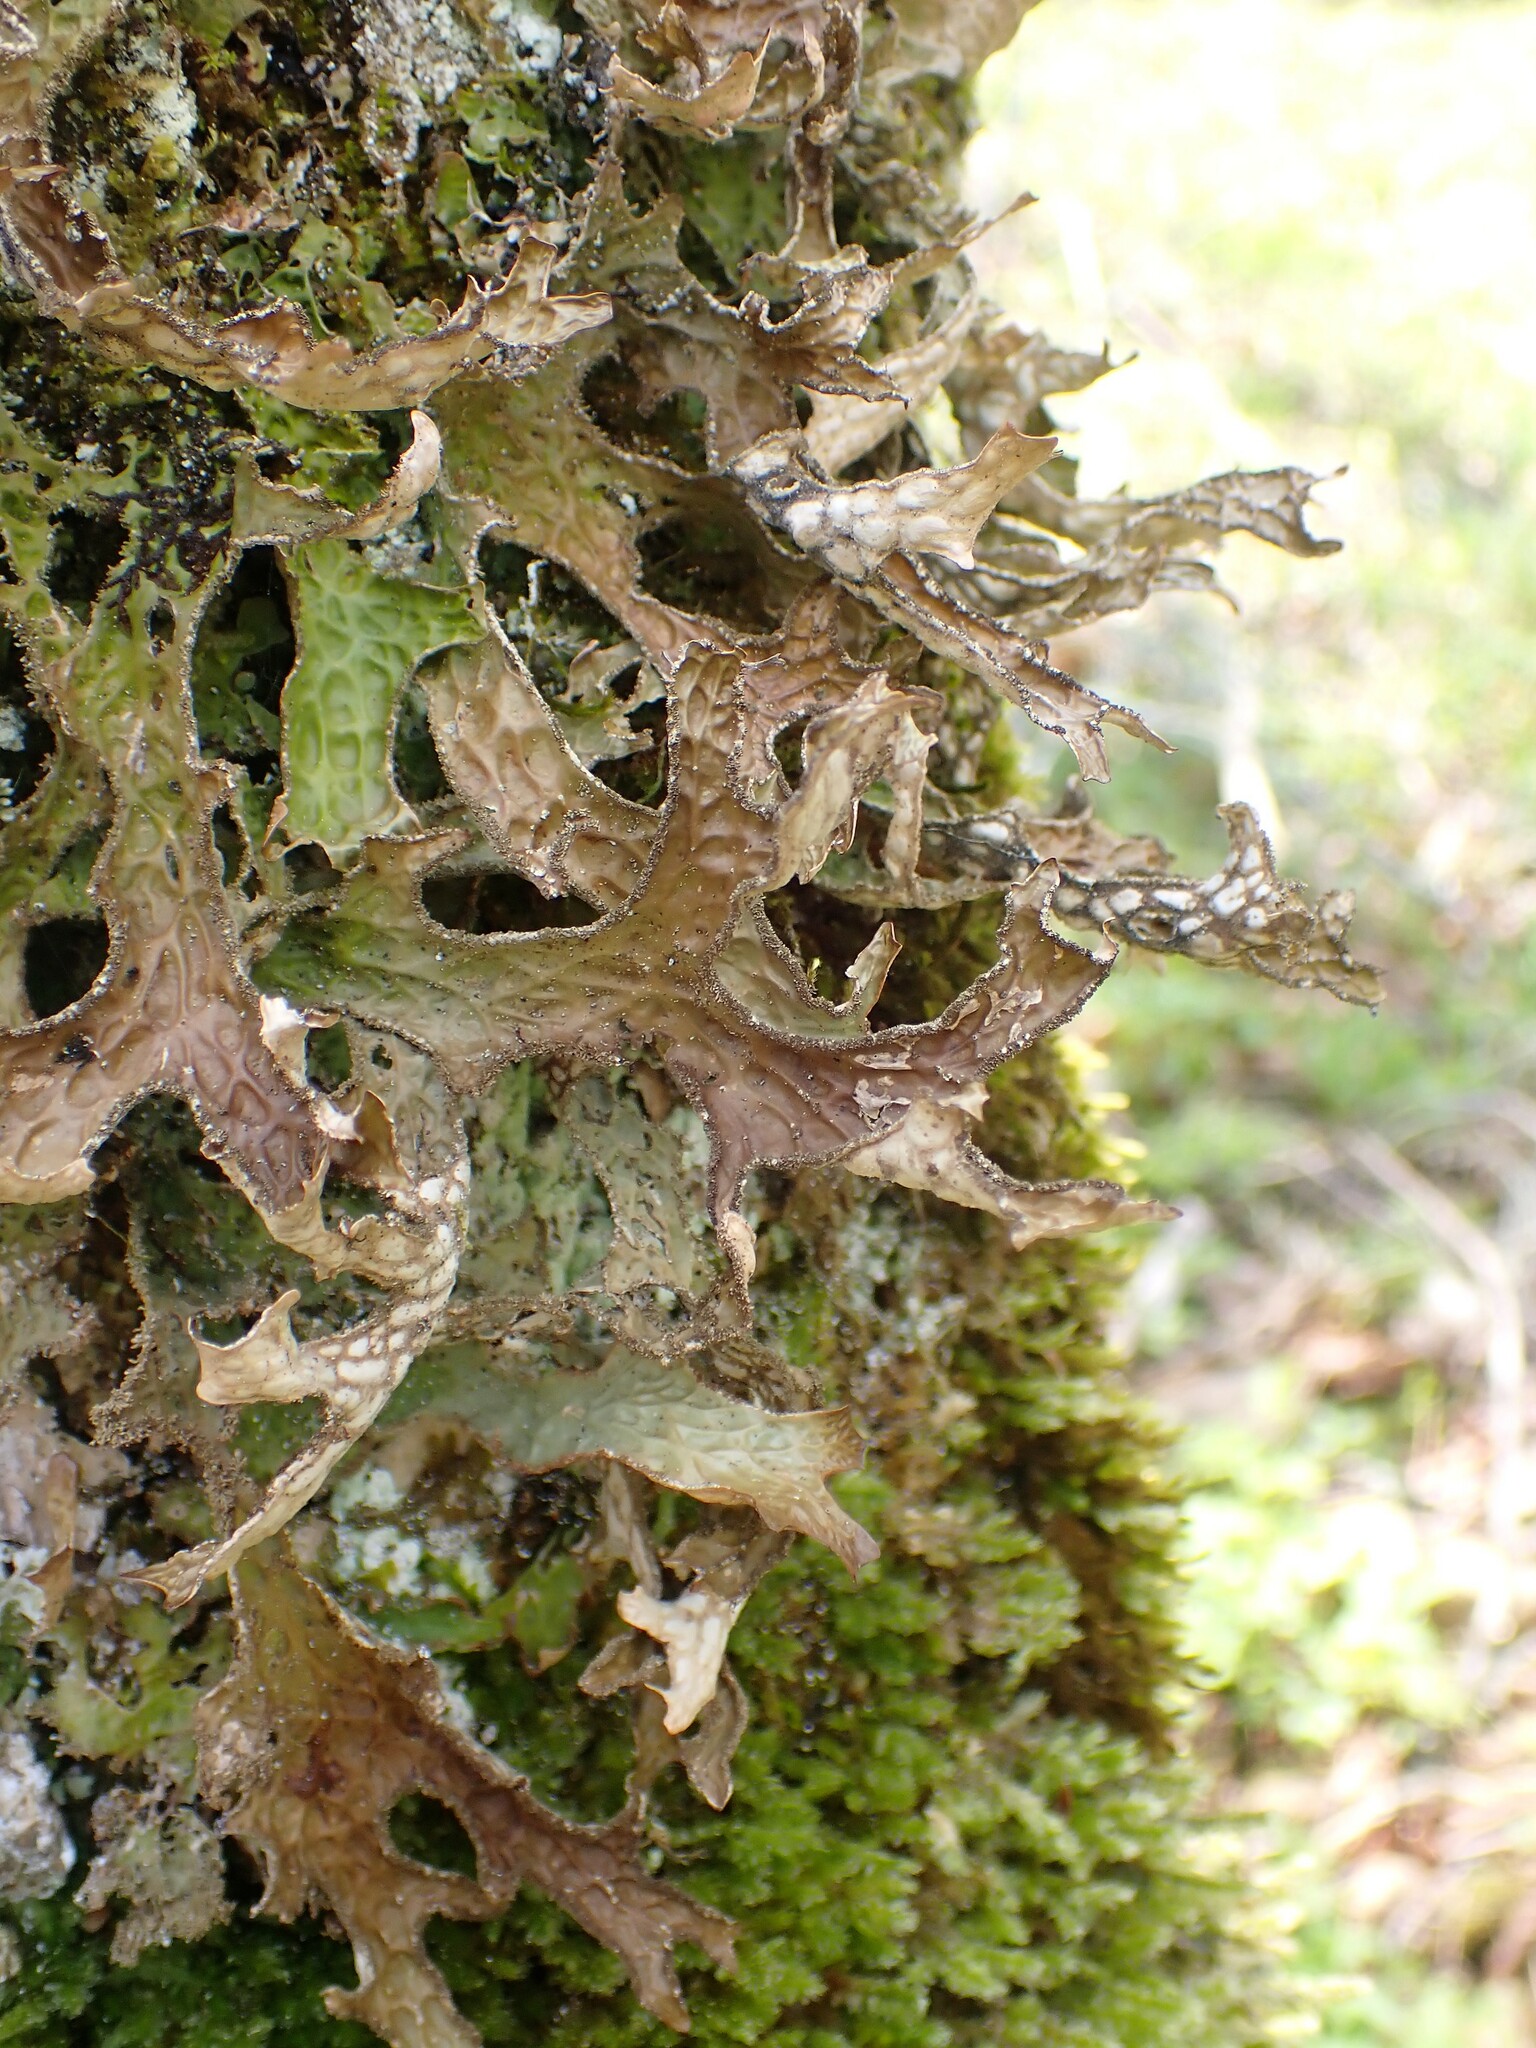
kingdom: Fungi
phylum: Ascomycota
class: Lecanoromycetes
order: Peltigerales
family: Lobariaceae
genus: Lobaria
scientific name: Lobaria pulmonaria
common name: Lungwort
